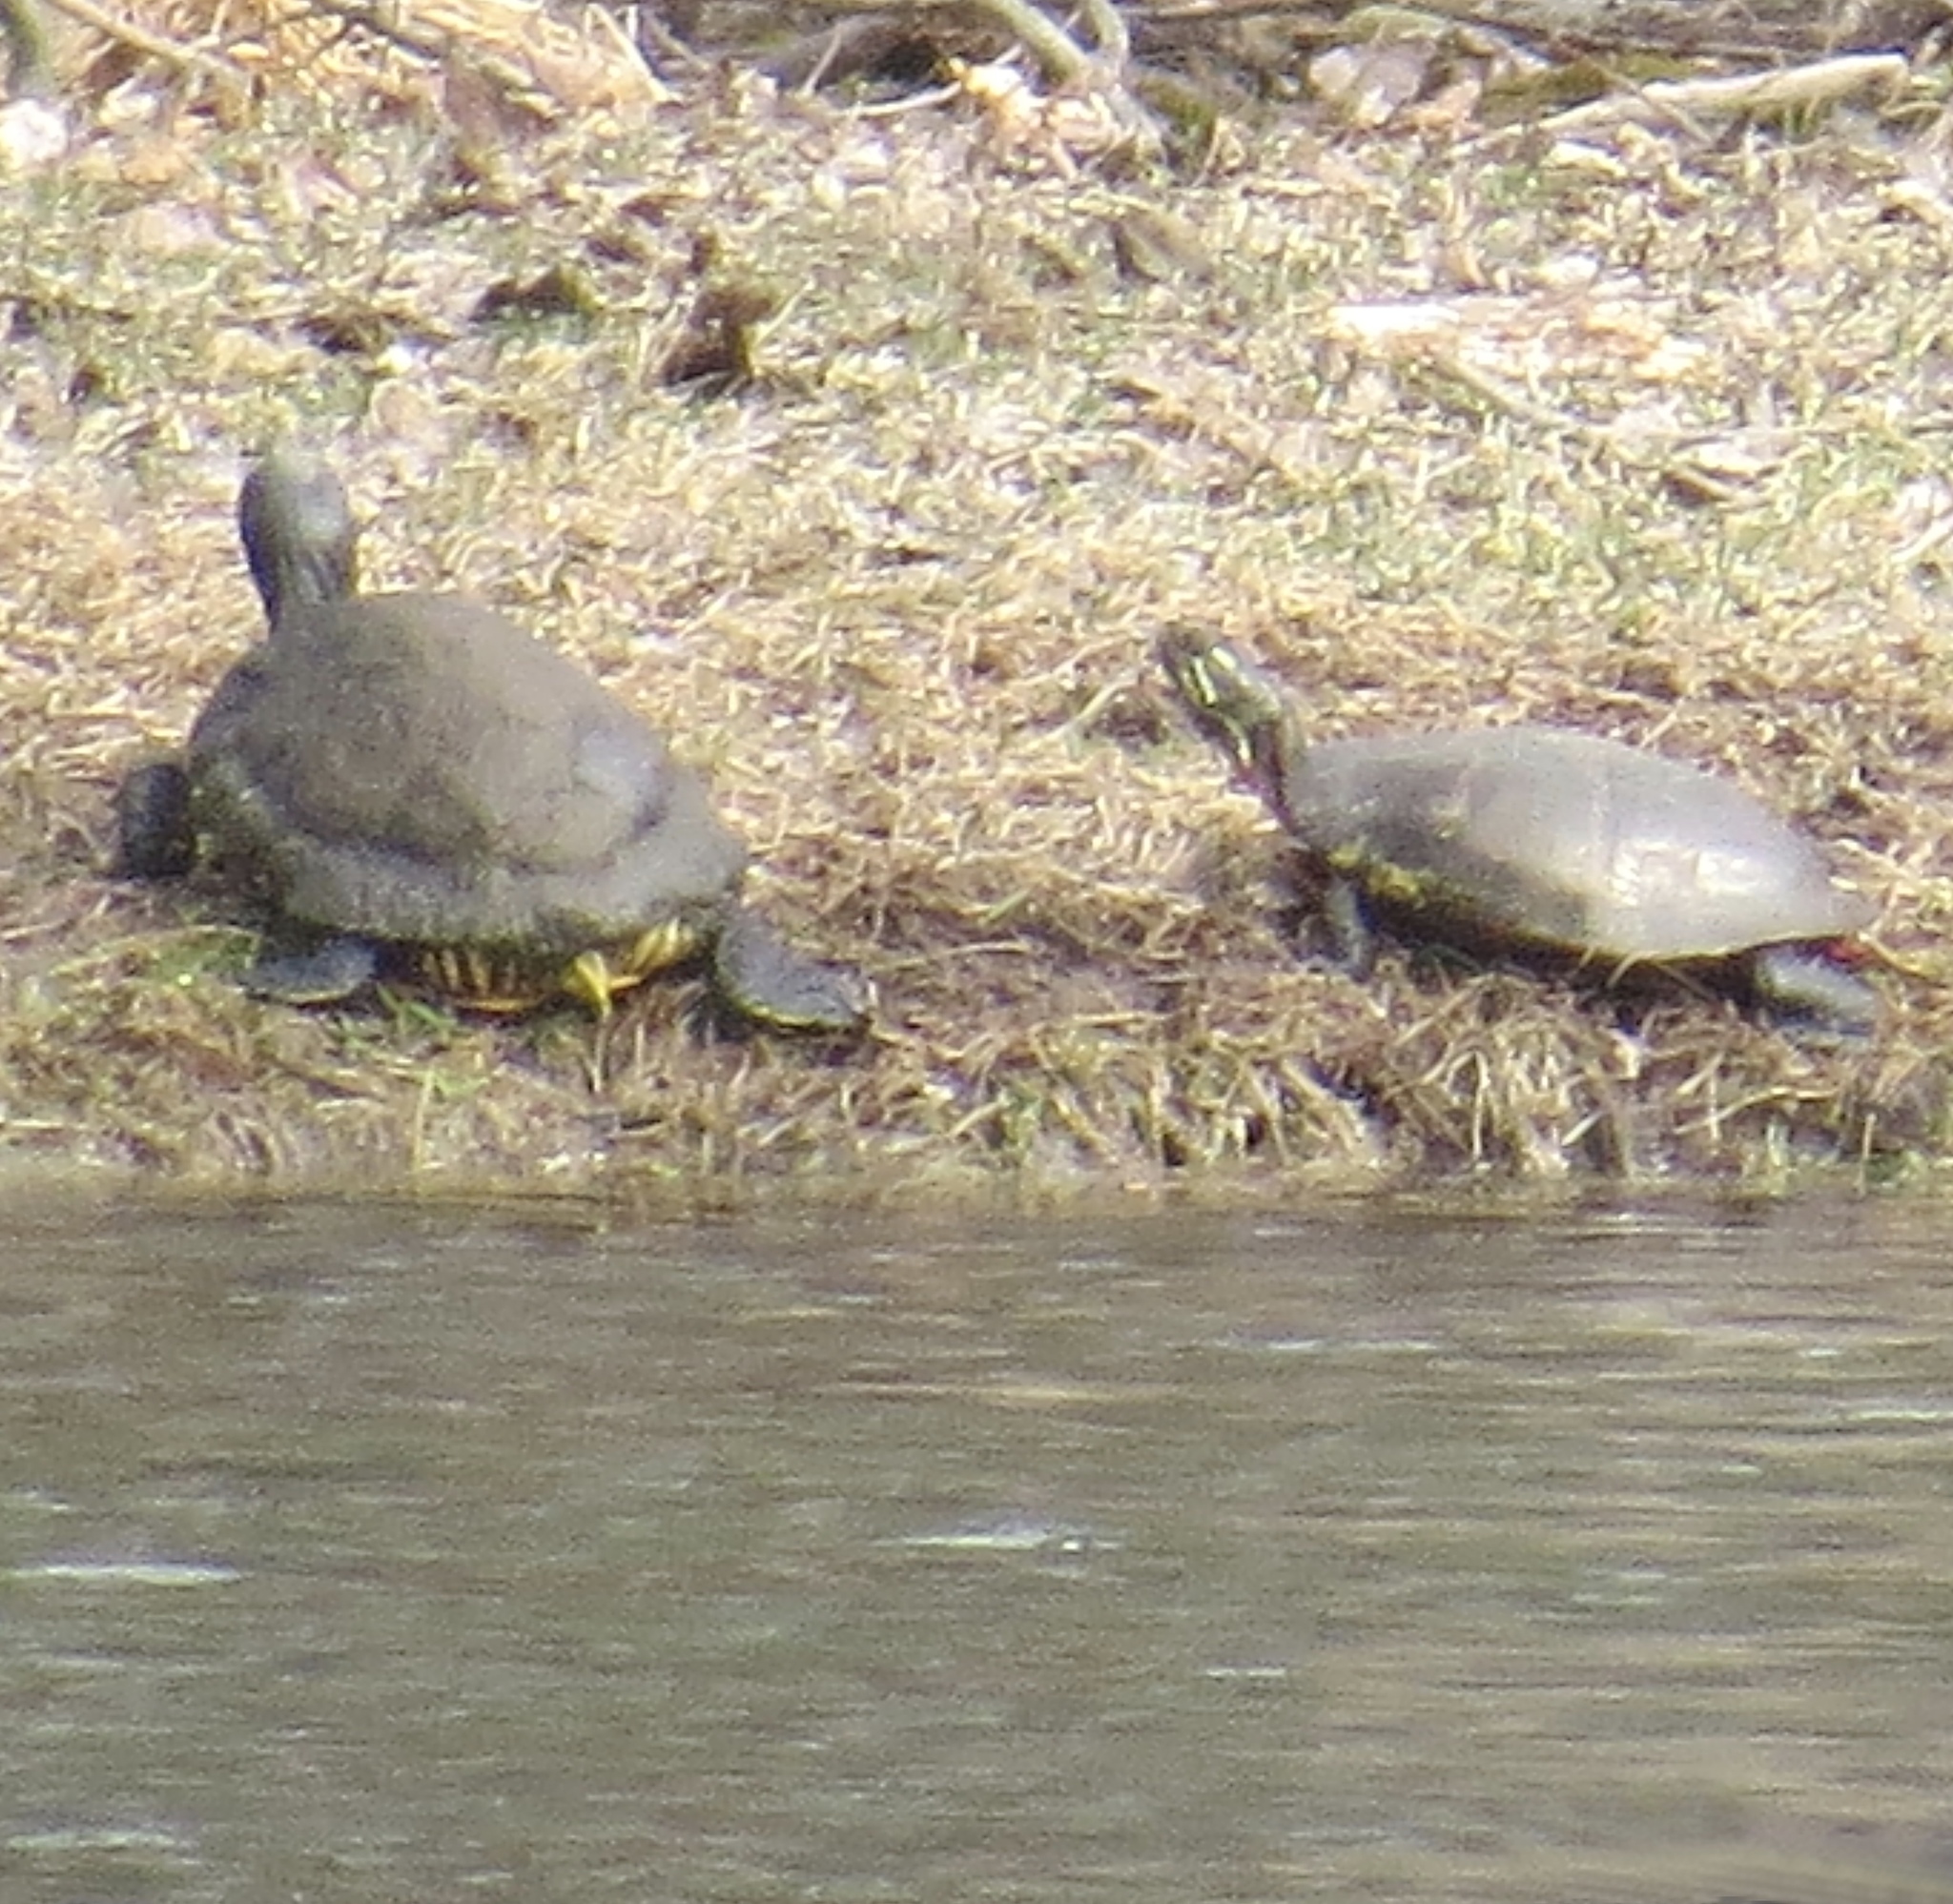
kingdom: Animalia
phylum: Chordata
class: Testudines
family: Emydidae
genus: Trachemys
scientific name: Trachemys scripta
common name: Slider
